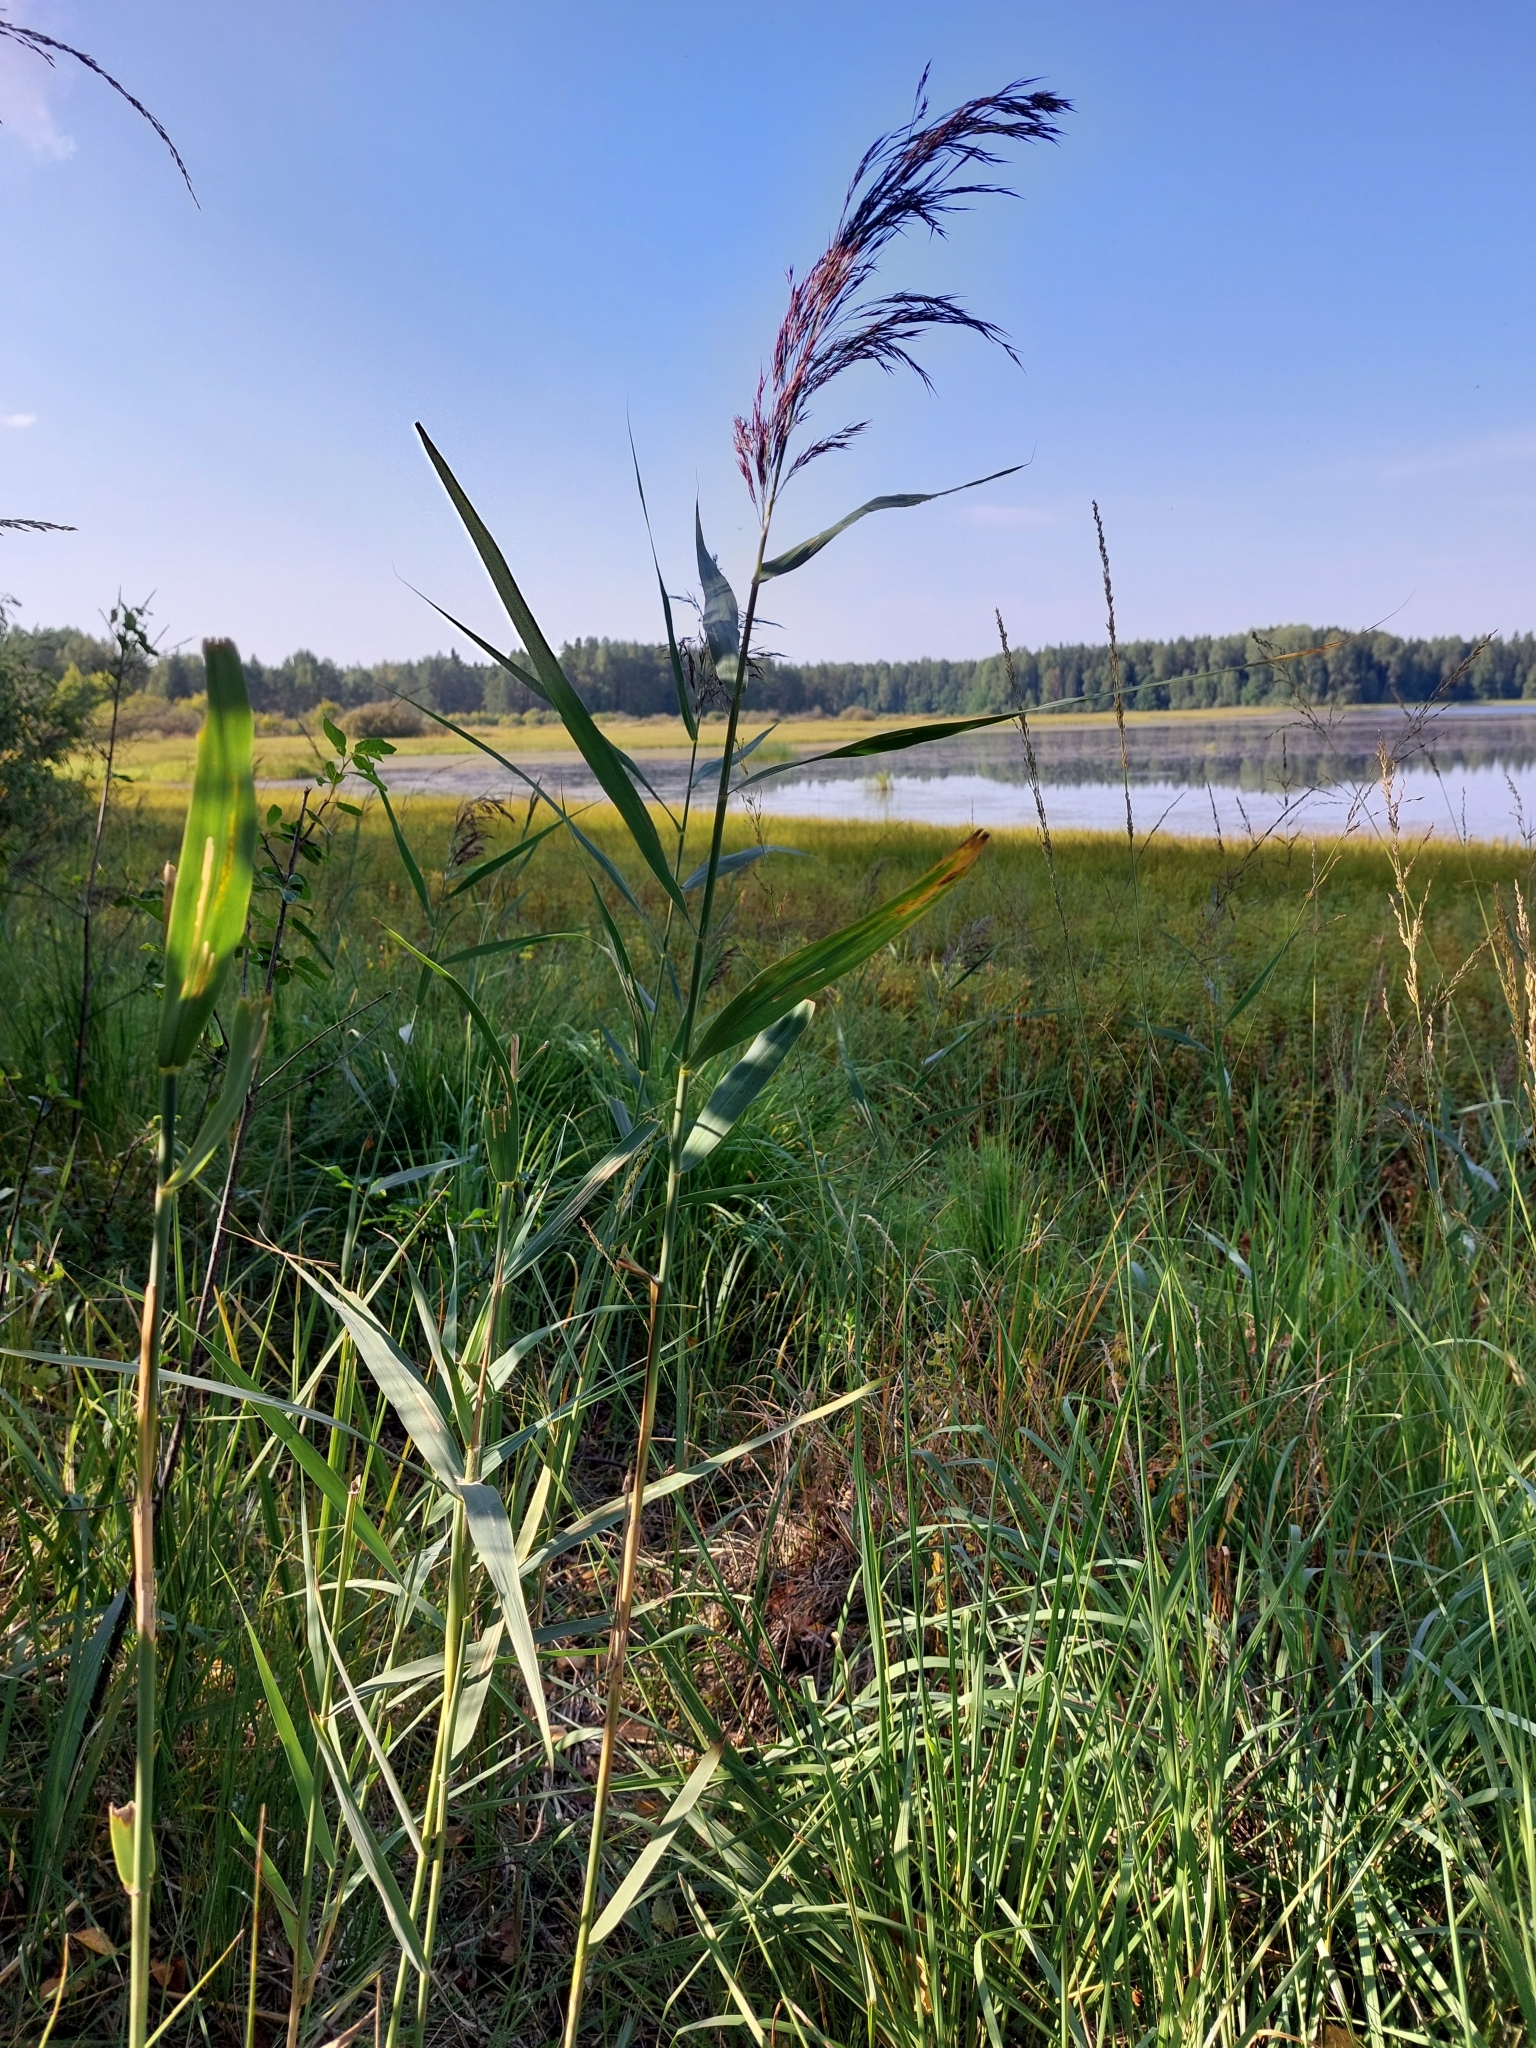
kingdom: Plantae
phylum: Tracheophyta
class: Liliopsida
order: Poales
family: Poaceae
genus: Phragmites
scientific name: Phragmites australis
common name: Common reed
